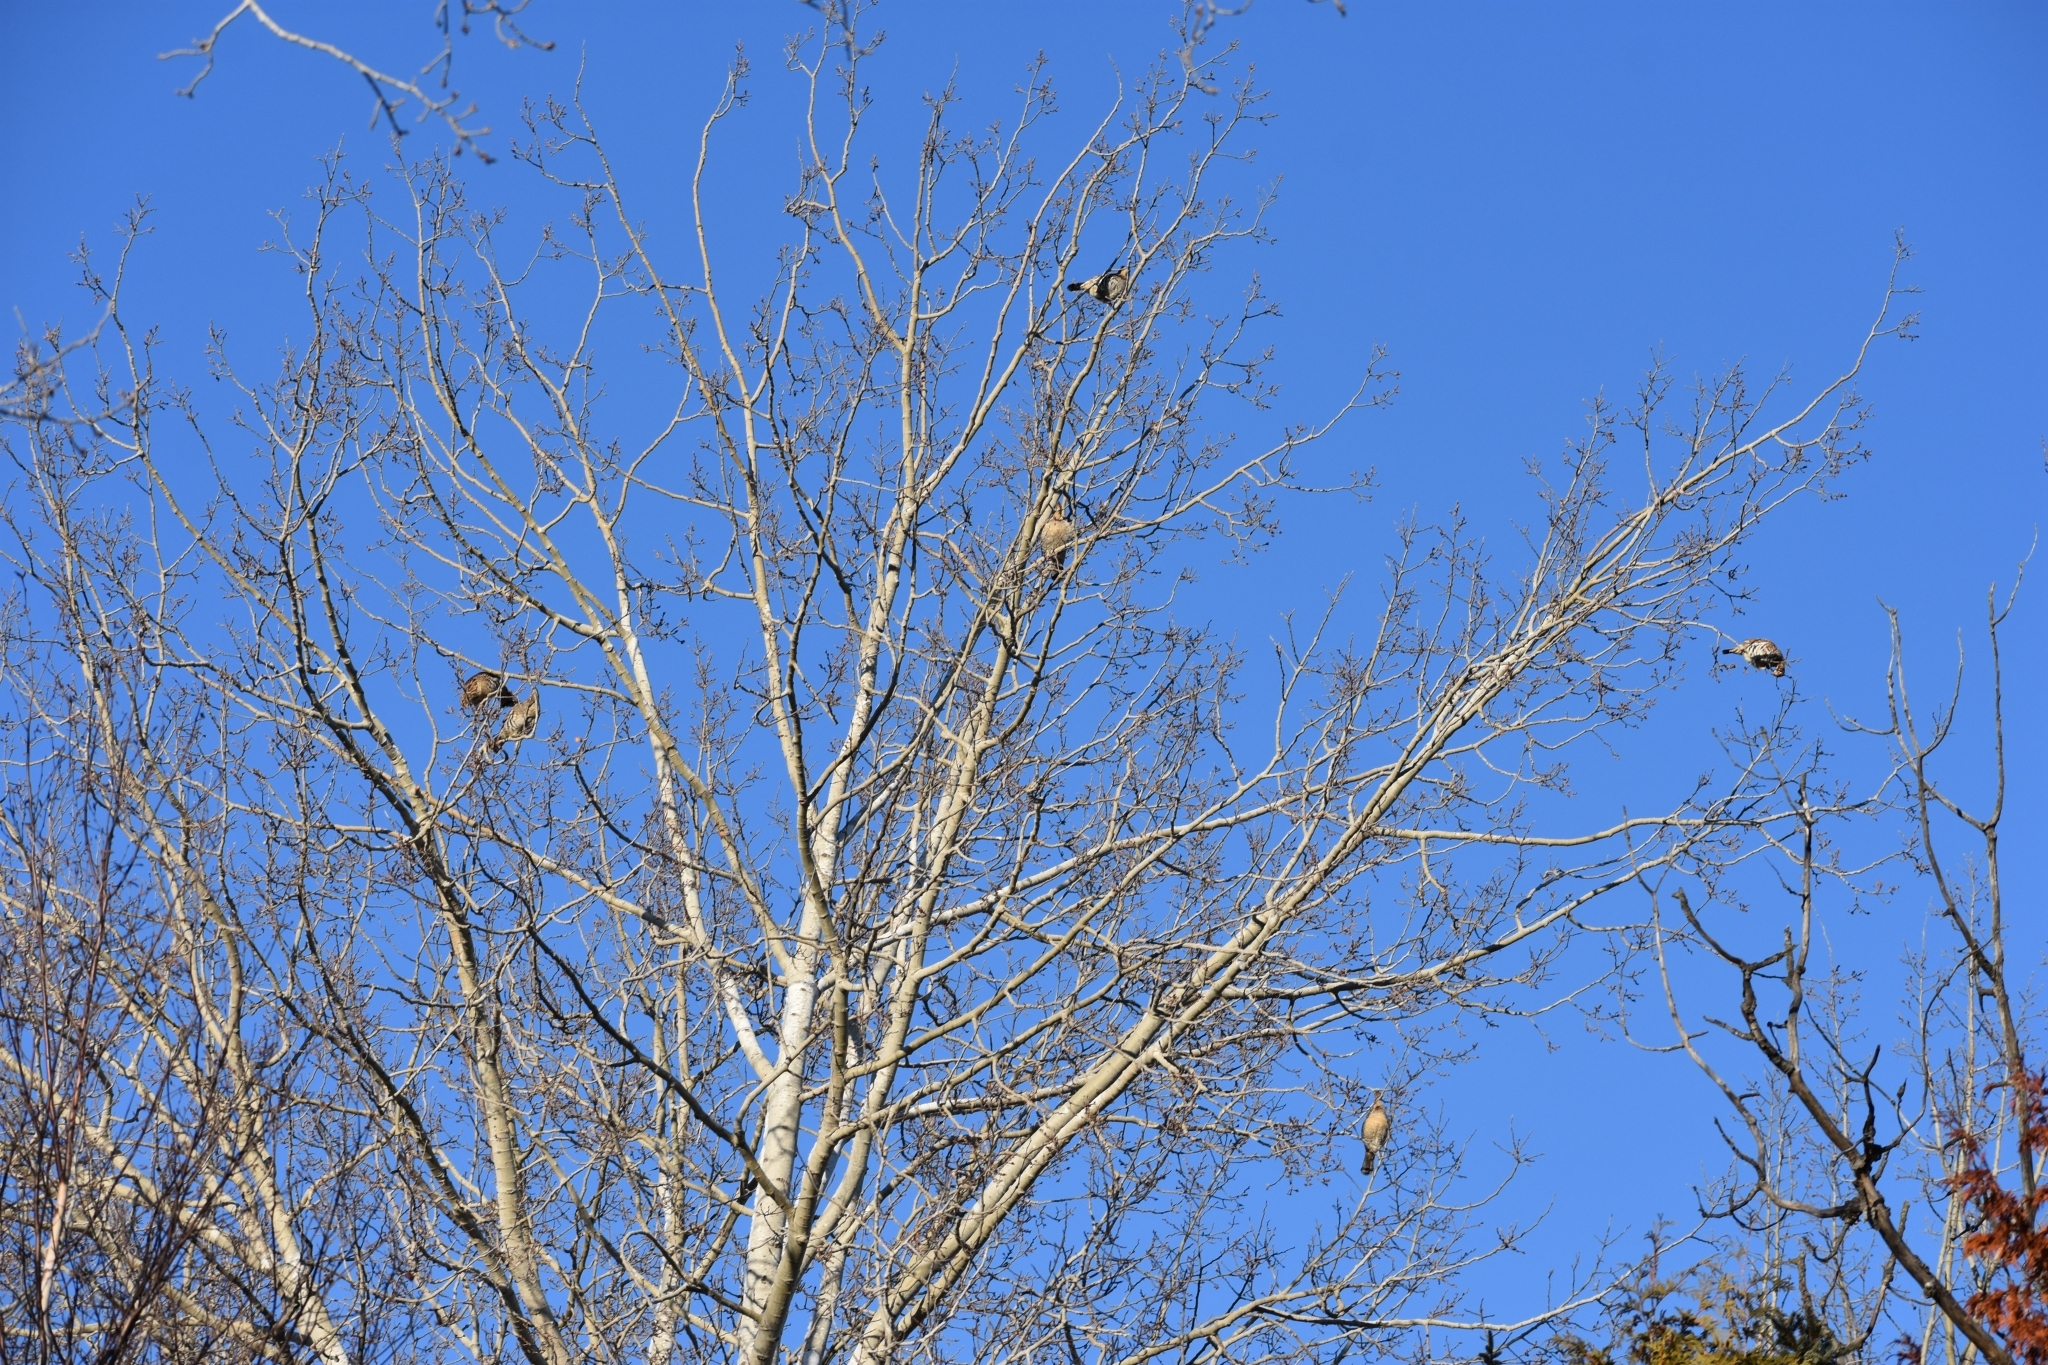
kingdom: Animalia
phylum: Chordata
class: Aves
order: Galliformes
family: Phasianidae
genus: Bonasa
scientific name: Bonasa umbellus
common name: Ruffed grouse
